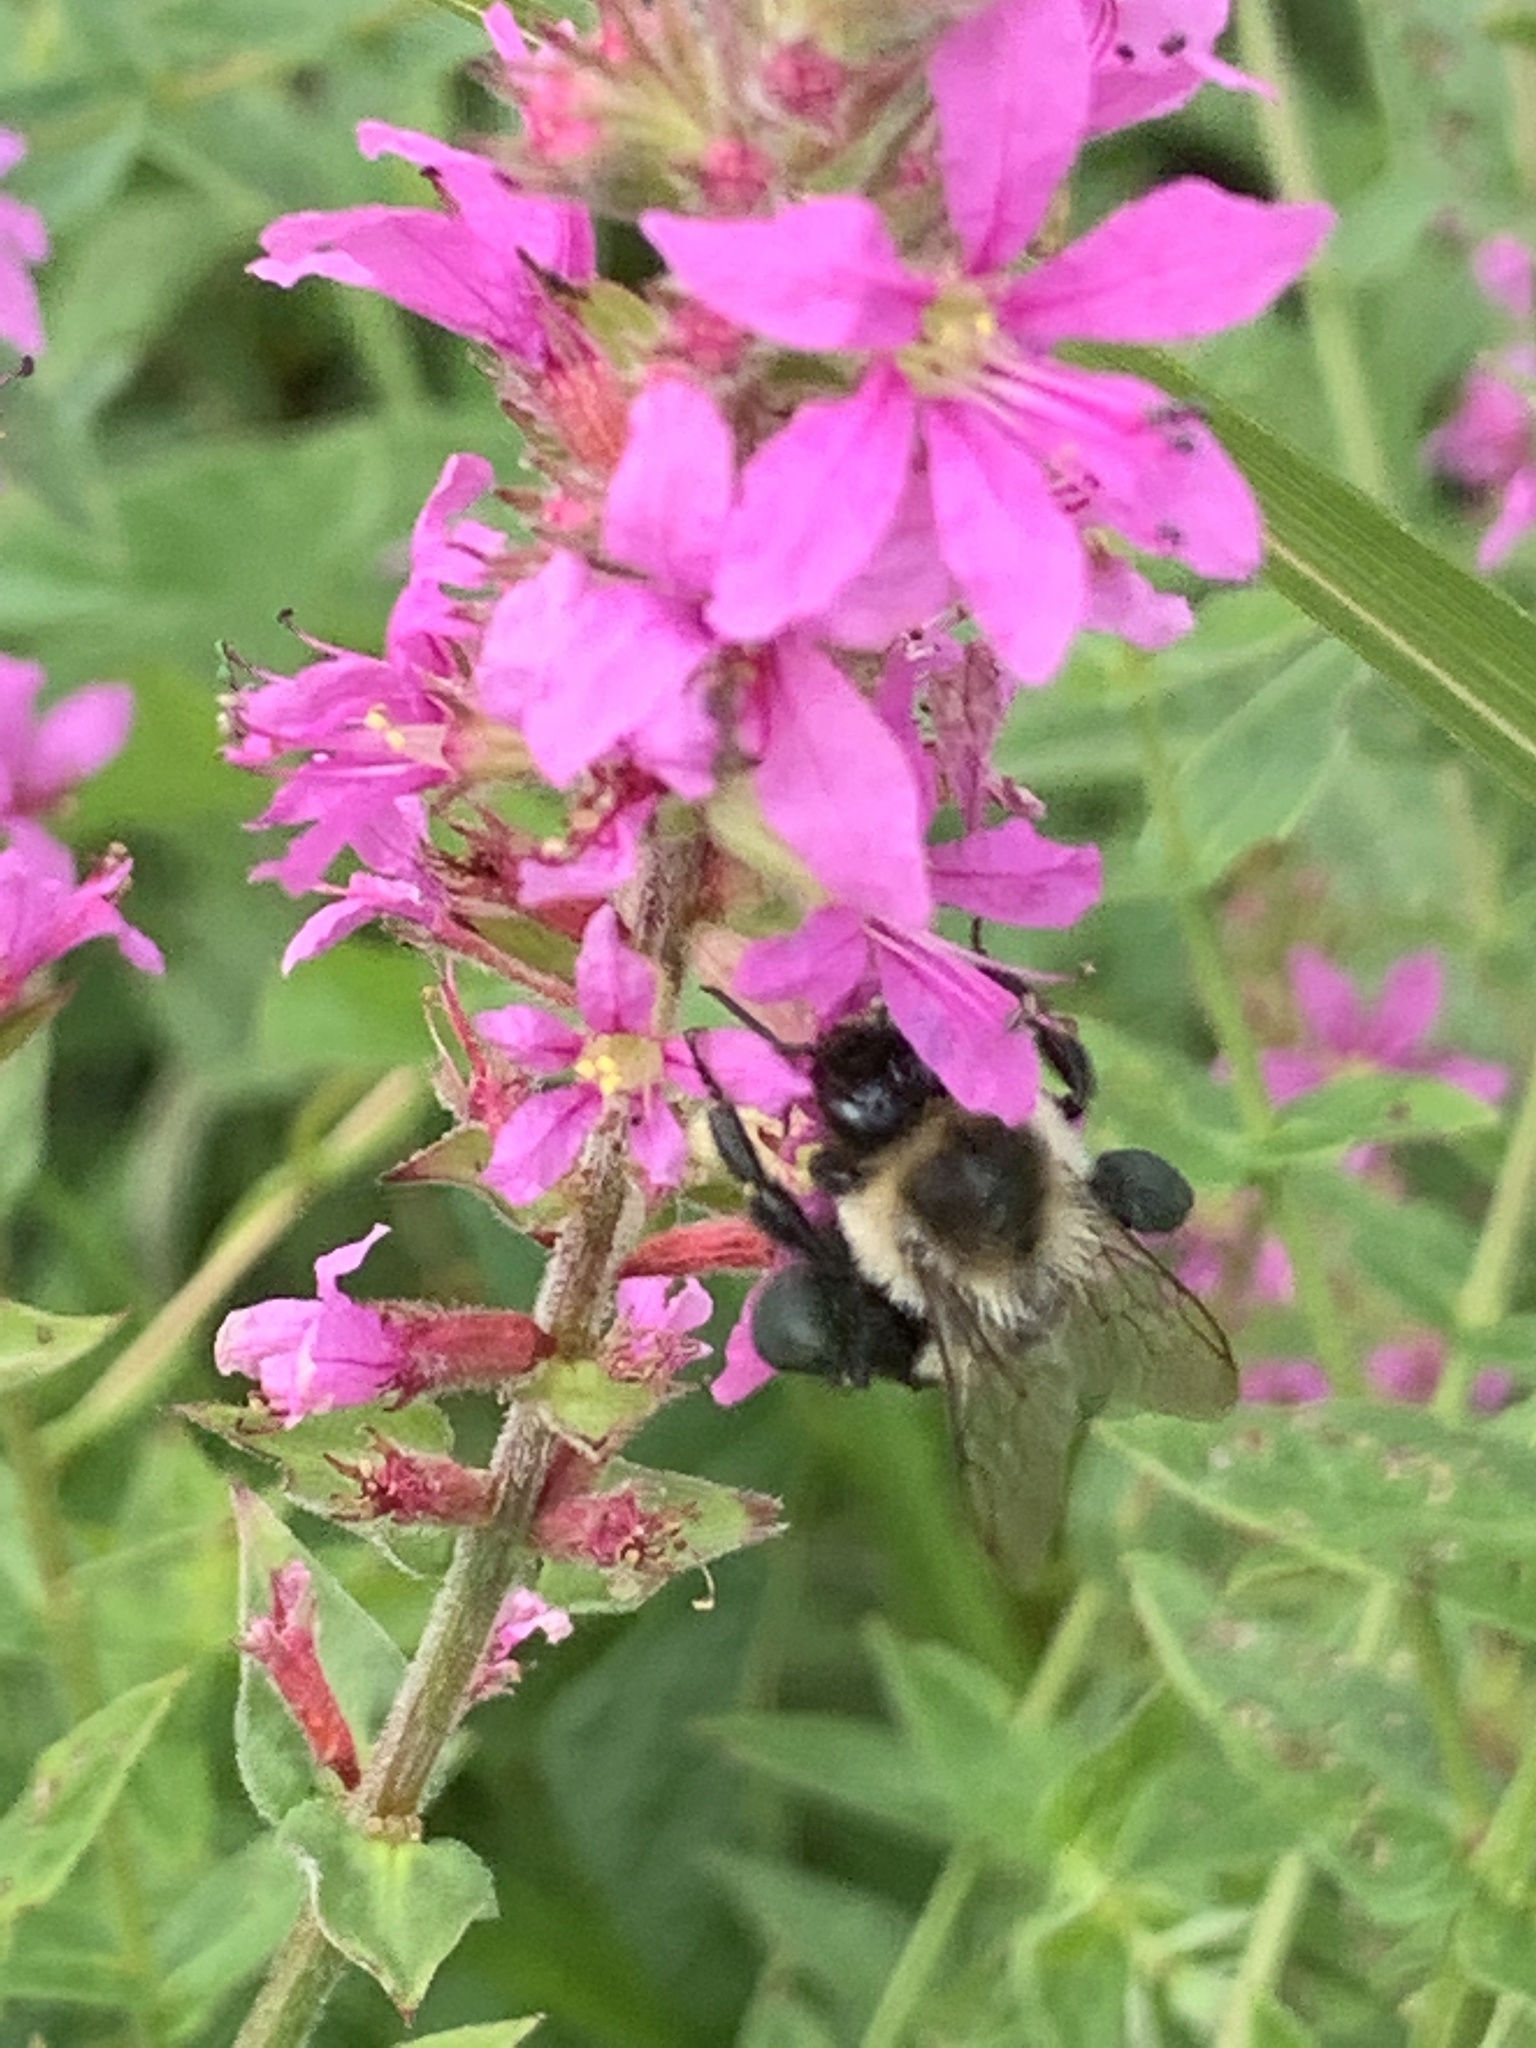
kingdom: Animalia
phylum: Arthropoda
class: Insecta
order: Hymenoptera
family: Apidae
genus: Bombus
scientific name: Bombus impatiens
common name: Common eastern bumble bee
